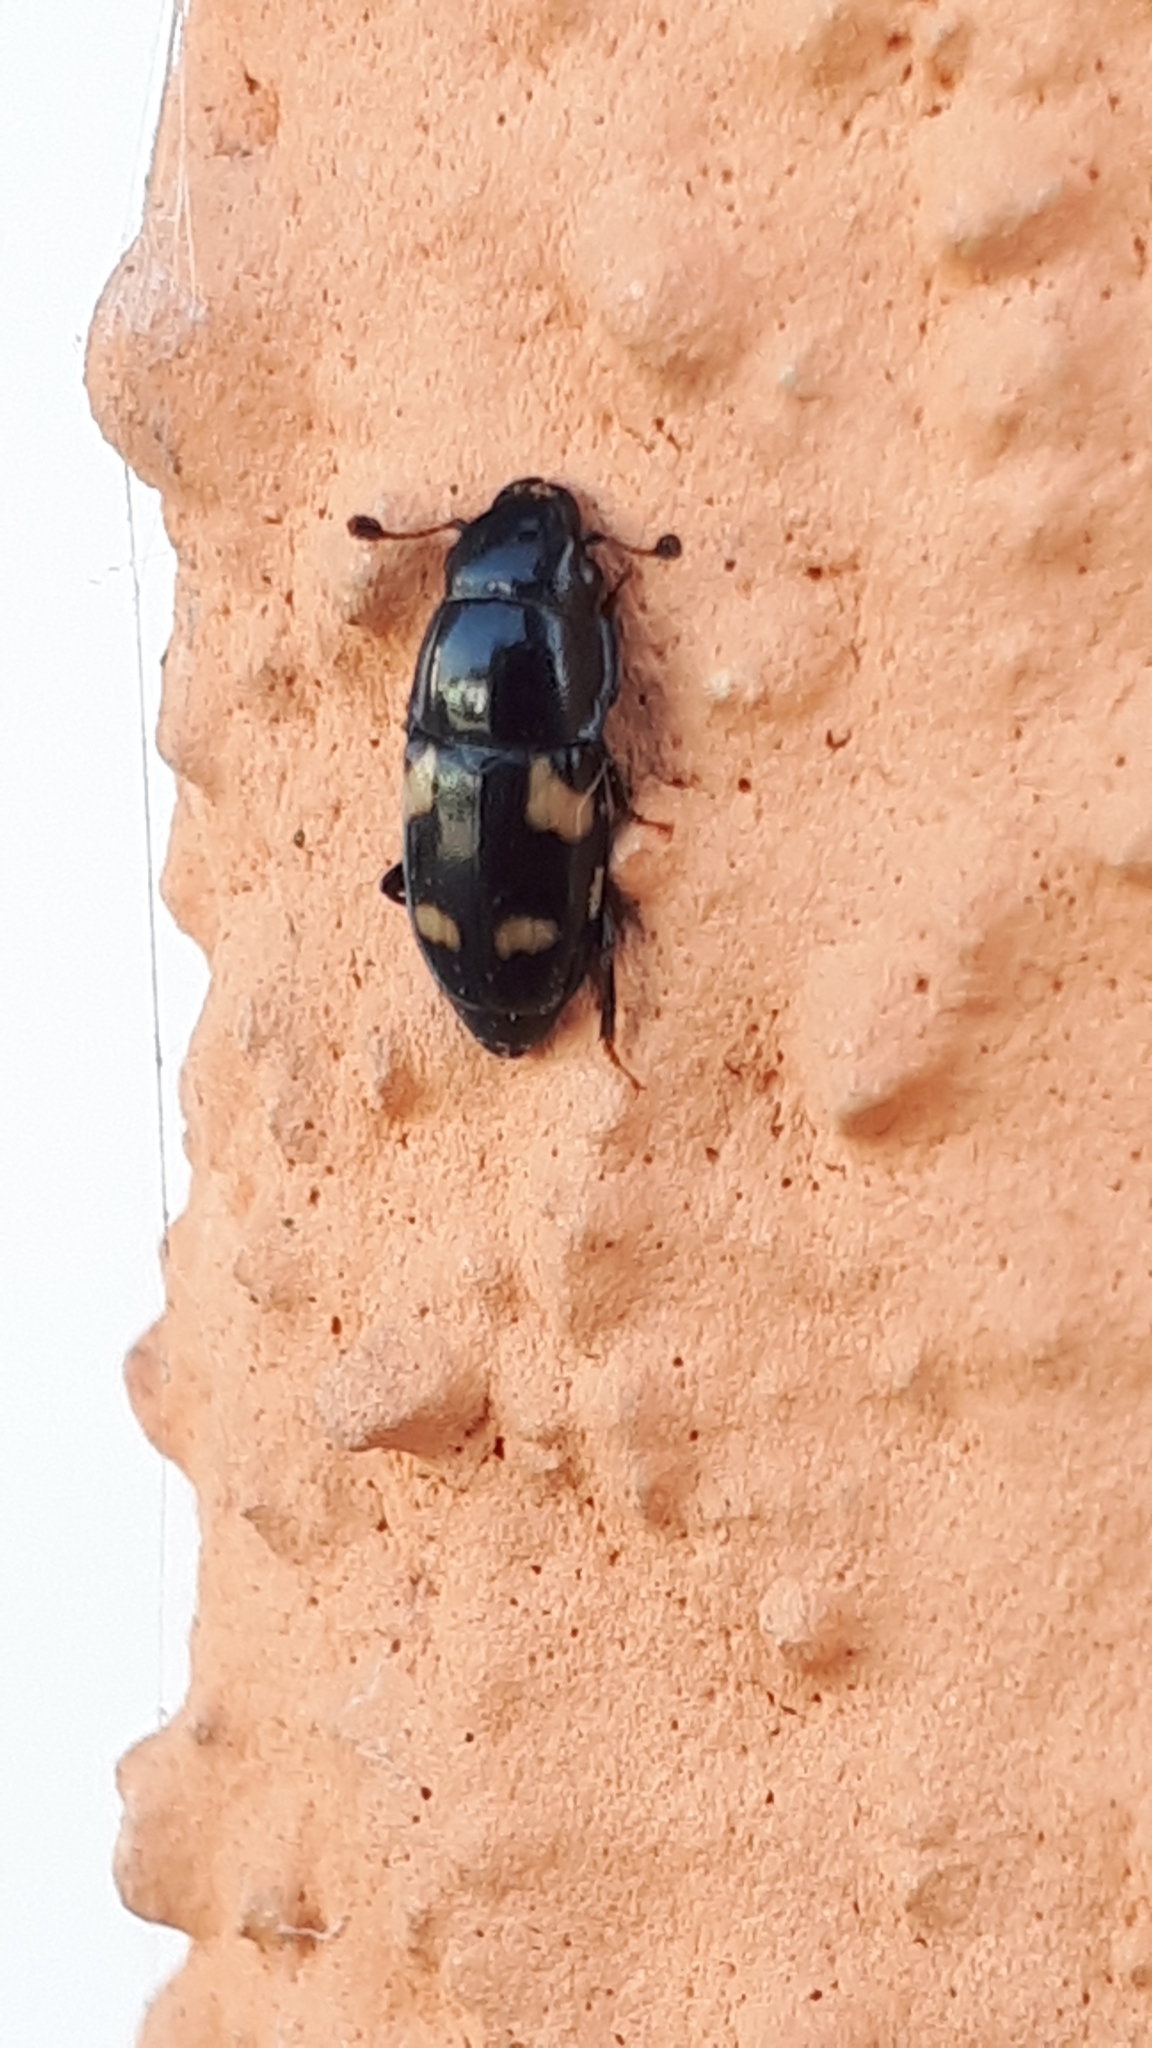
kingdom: Animalia
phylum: Arthropoda
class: Insecta
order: Coleoptera
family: Nitidulidae
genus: Glischrochilus
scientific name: Glischrochilus quadrisignatus
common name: Picnic beetle
